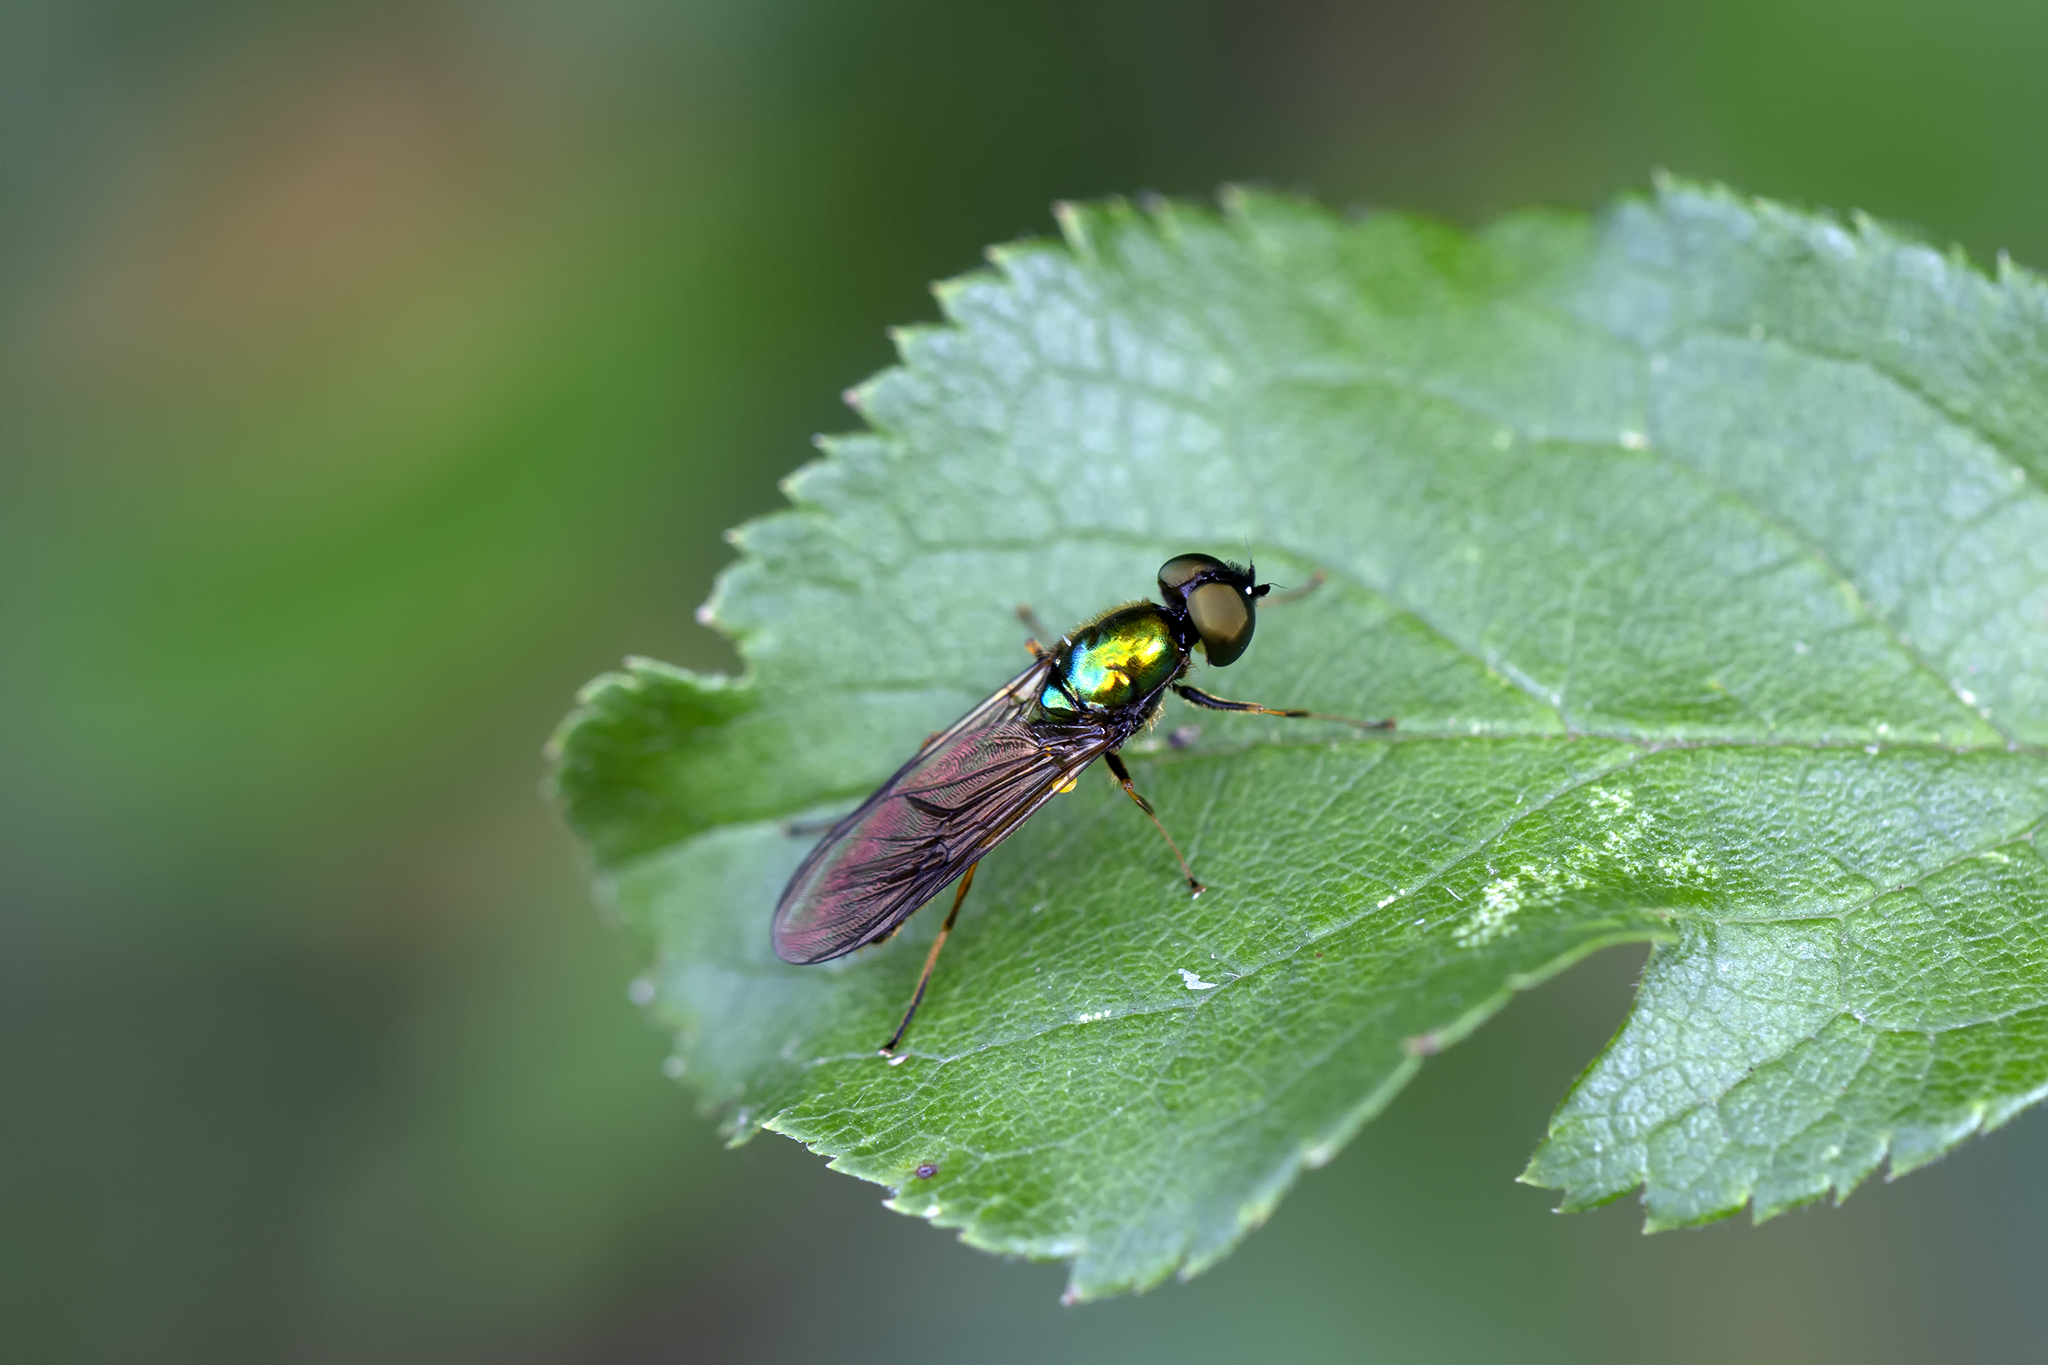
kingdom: Animalia
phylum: Arthropoda
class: Insecta
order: Diptera
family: Stratiomyidae
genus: Sargus
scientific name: Sargus bipunctatus
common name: Twin-spot centurion
